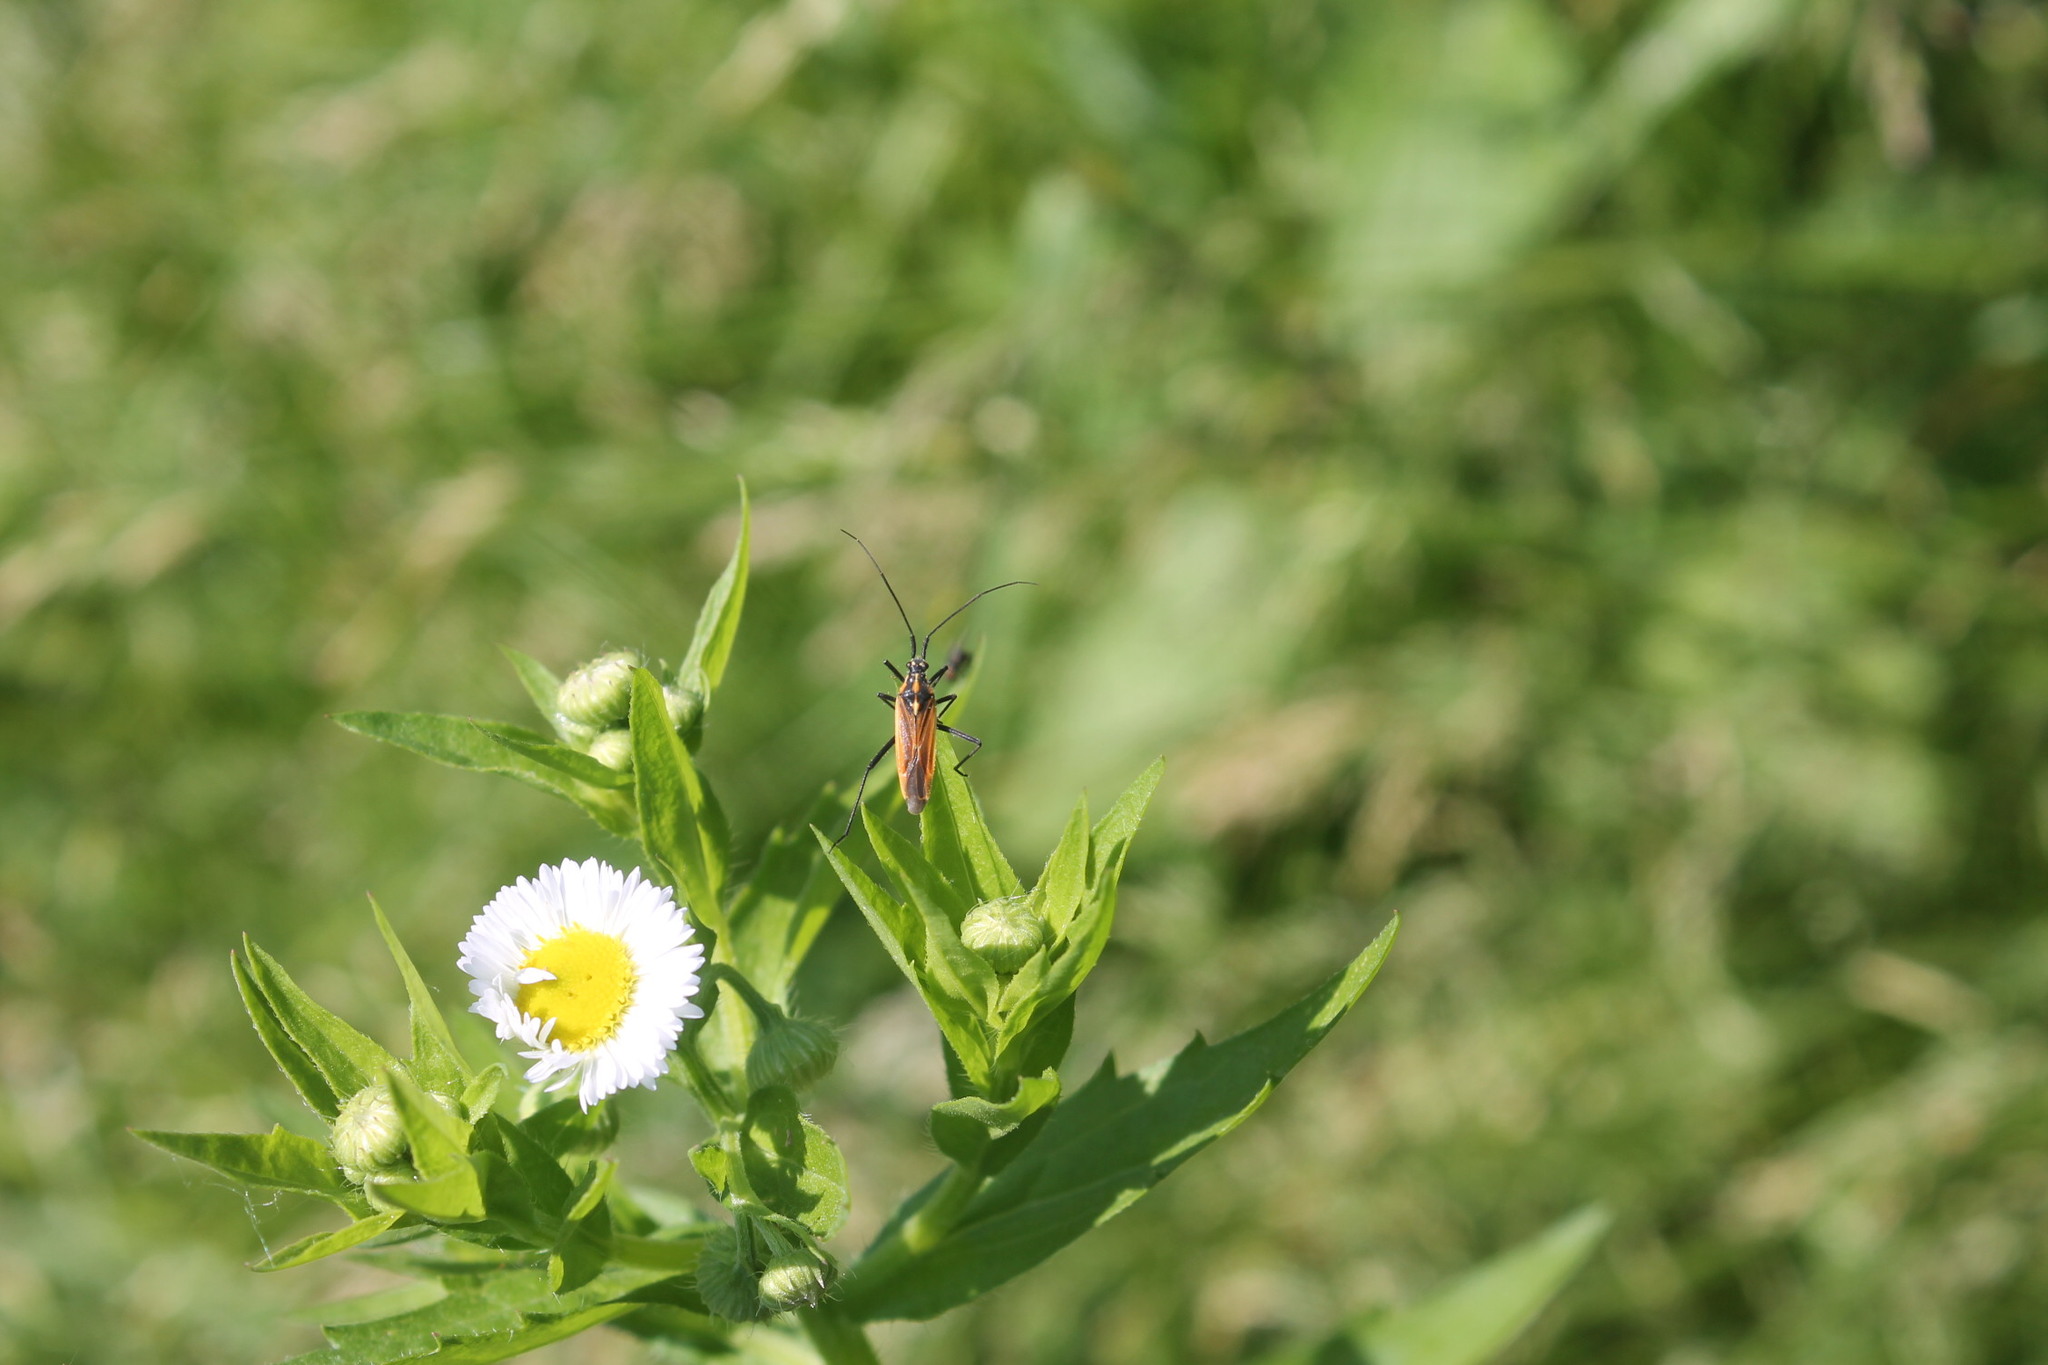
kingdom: Animalia
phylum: Arthropoda
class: Insecta
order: Hemiptera
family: Miridae
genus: Leptopterna
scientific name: Leptopterna dolabrata
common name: Meadow plant bug
